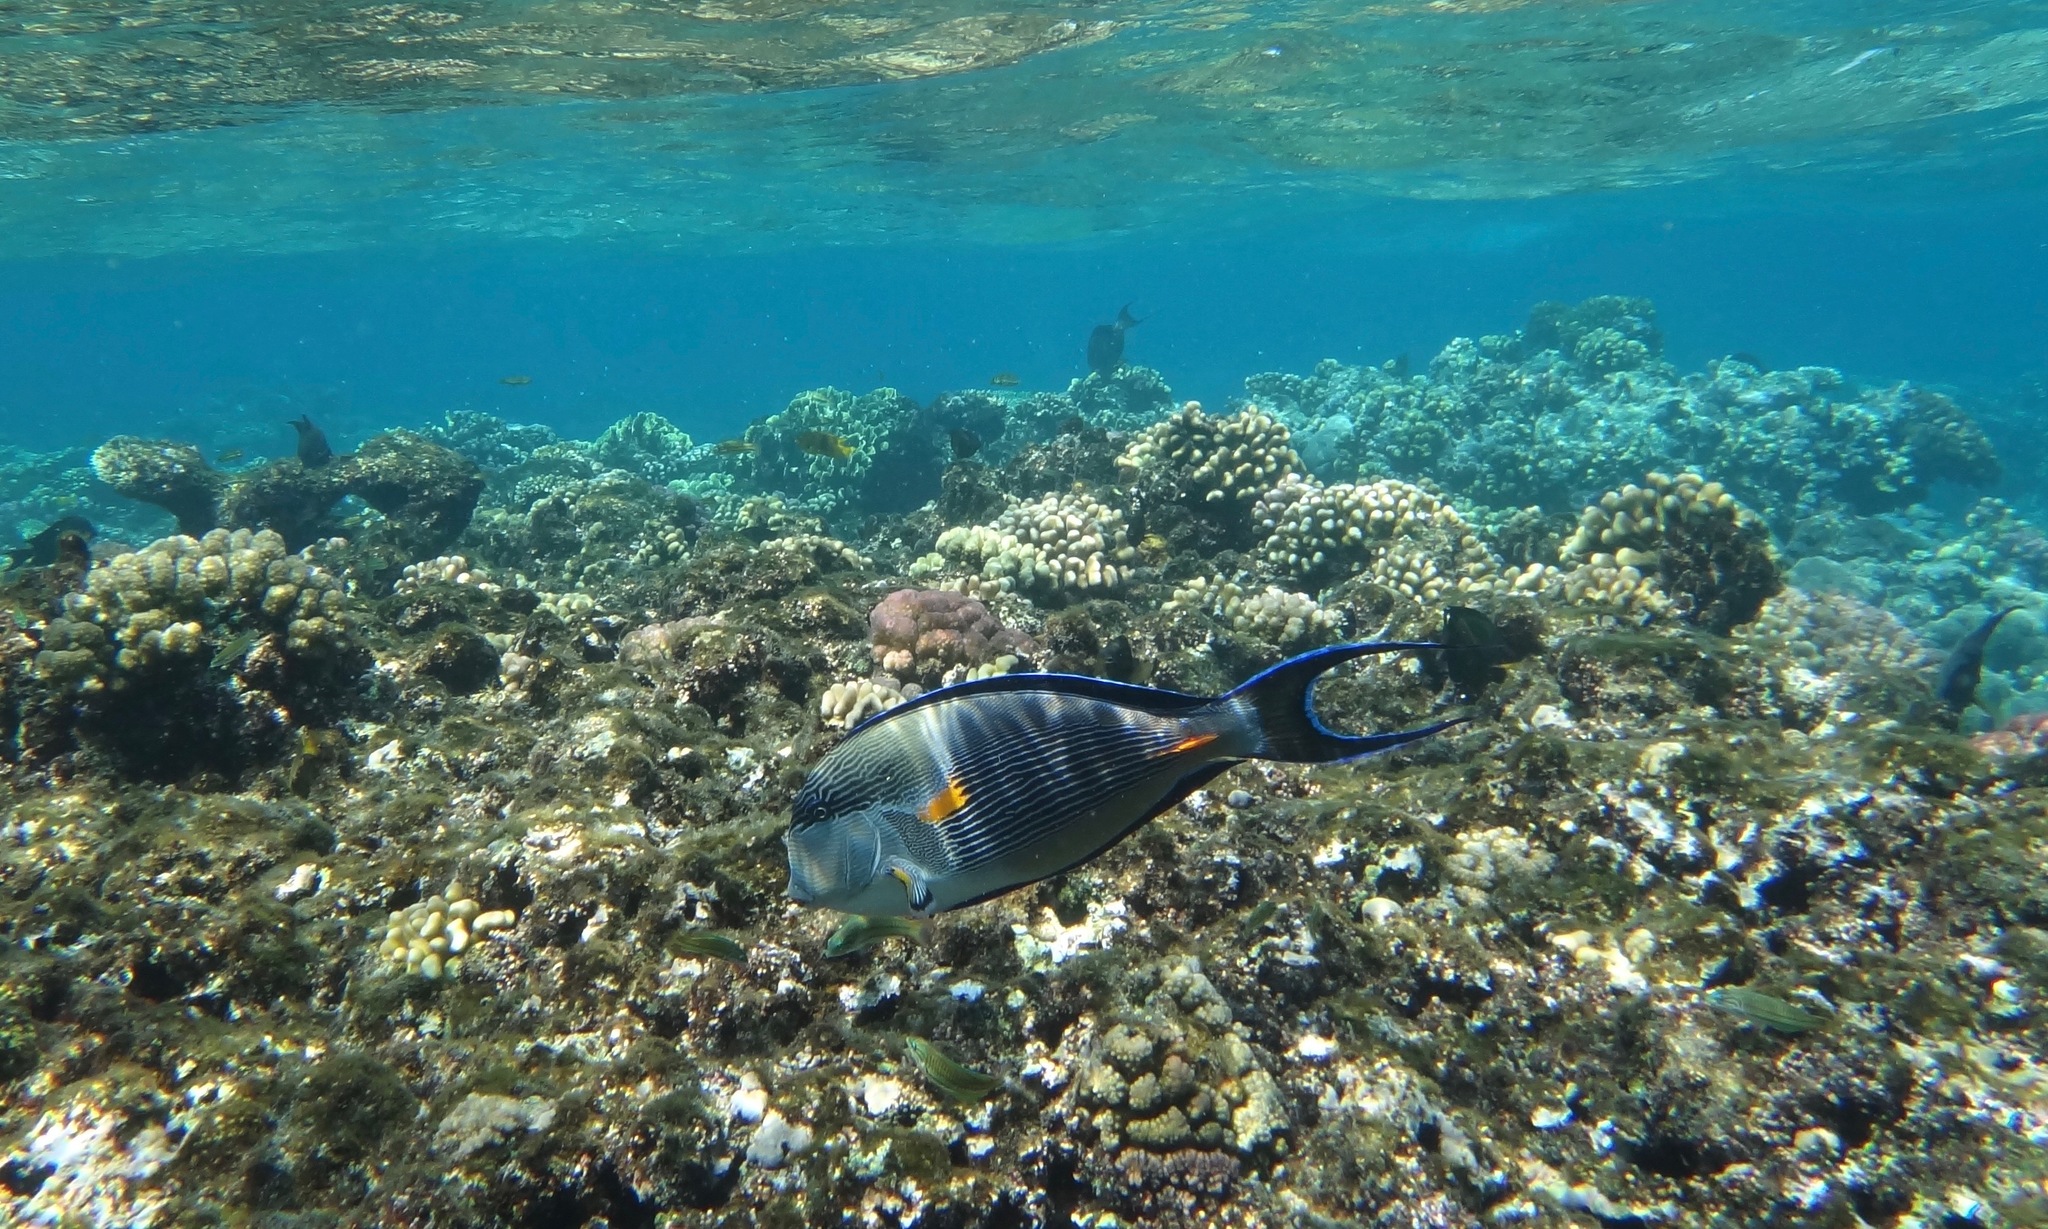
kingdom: Animalia
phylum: Chordata
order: Perciformes
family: Acanthuridae
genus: Acanthurus
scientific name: Acanthurus sohal
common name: Red sea surgeonfish
